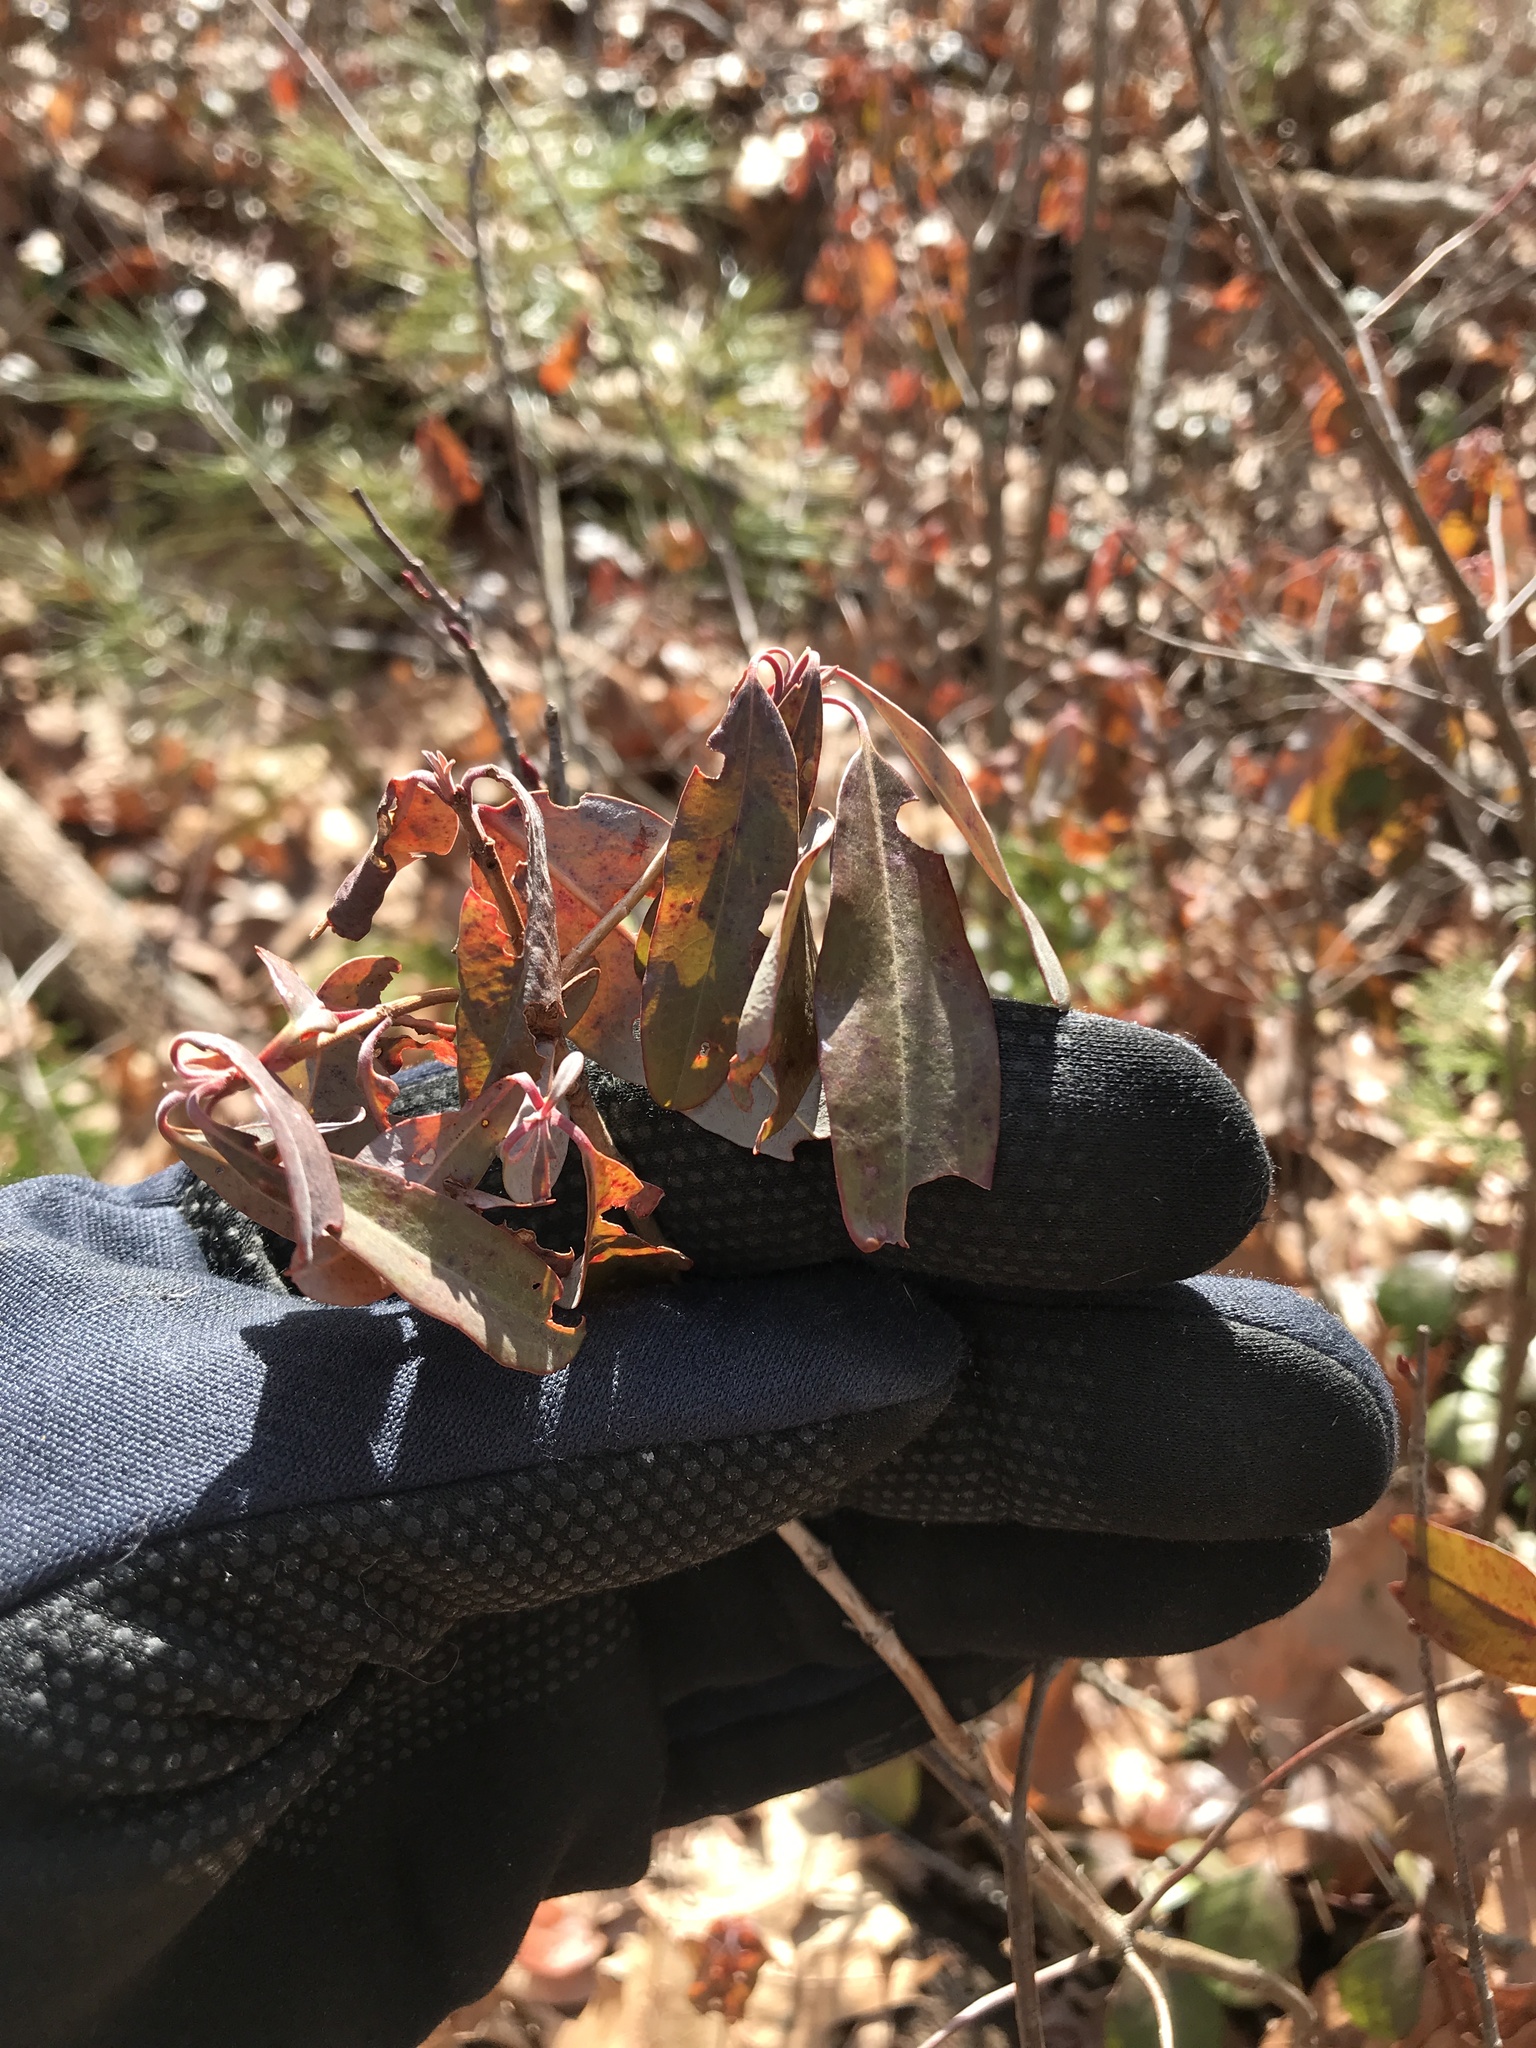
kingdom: Plantae
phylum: Tracheophyta
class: Magnoliopsida
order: Ericales
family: Ericaceae
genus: Kalmia
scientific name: Kalmia angustifolia
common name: Sheep-laurel
